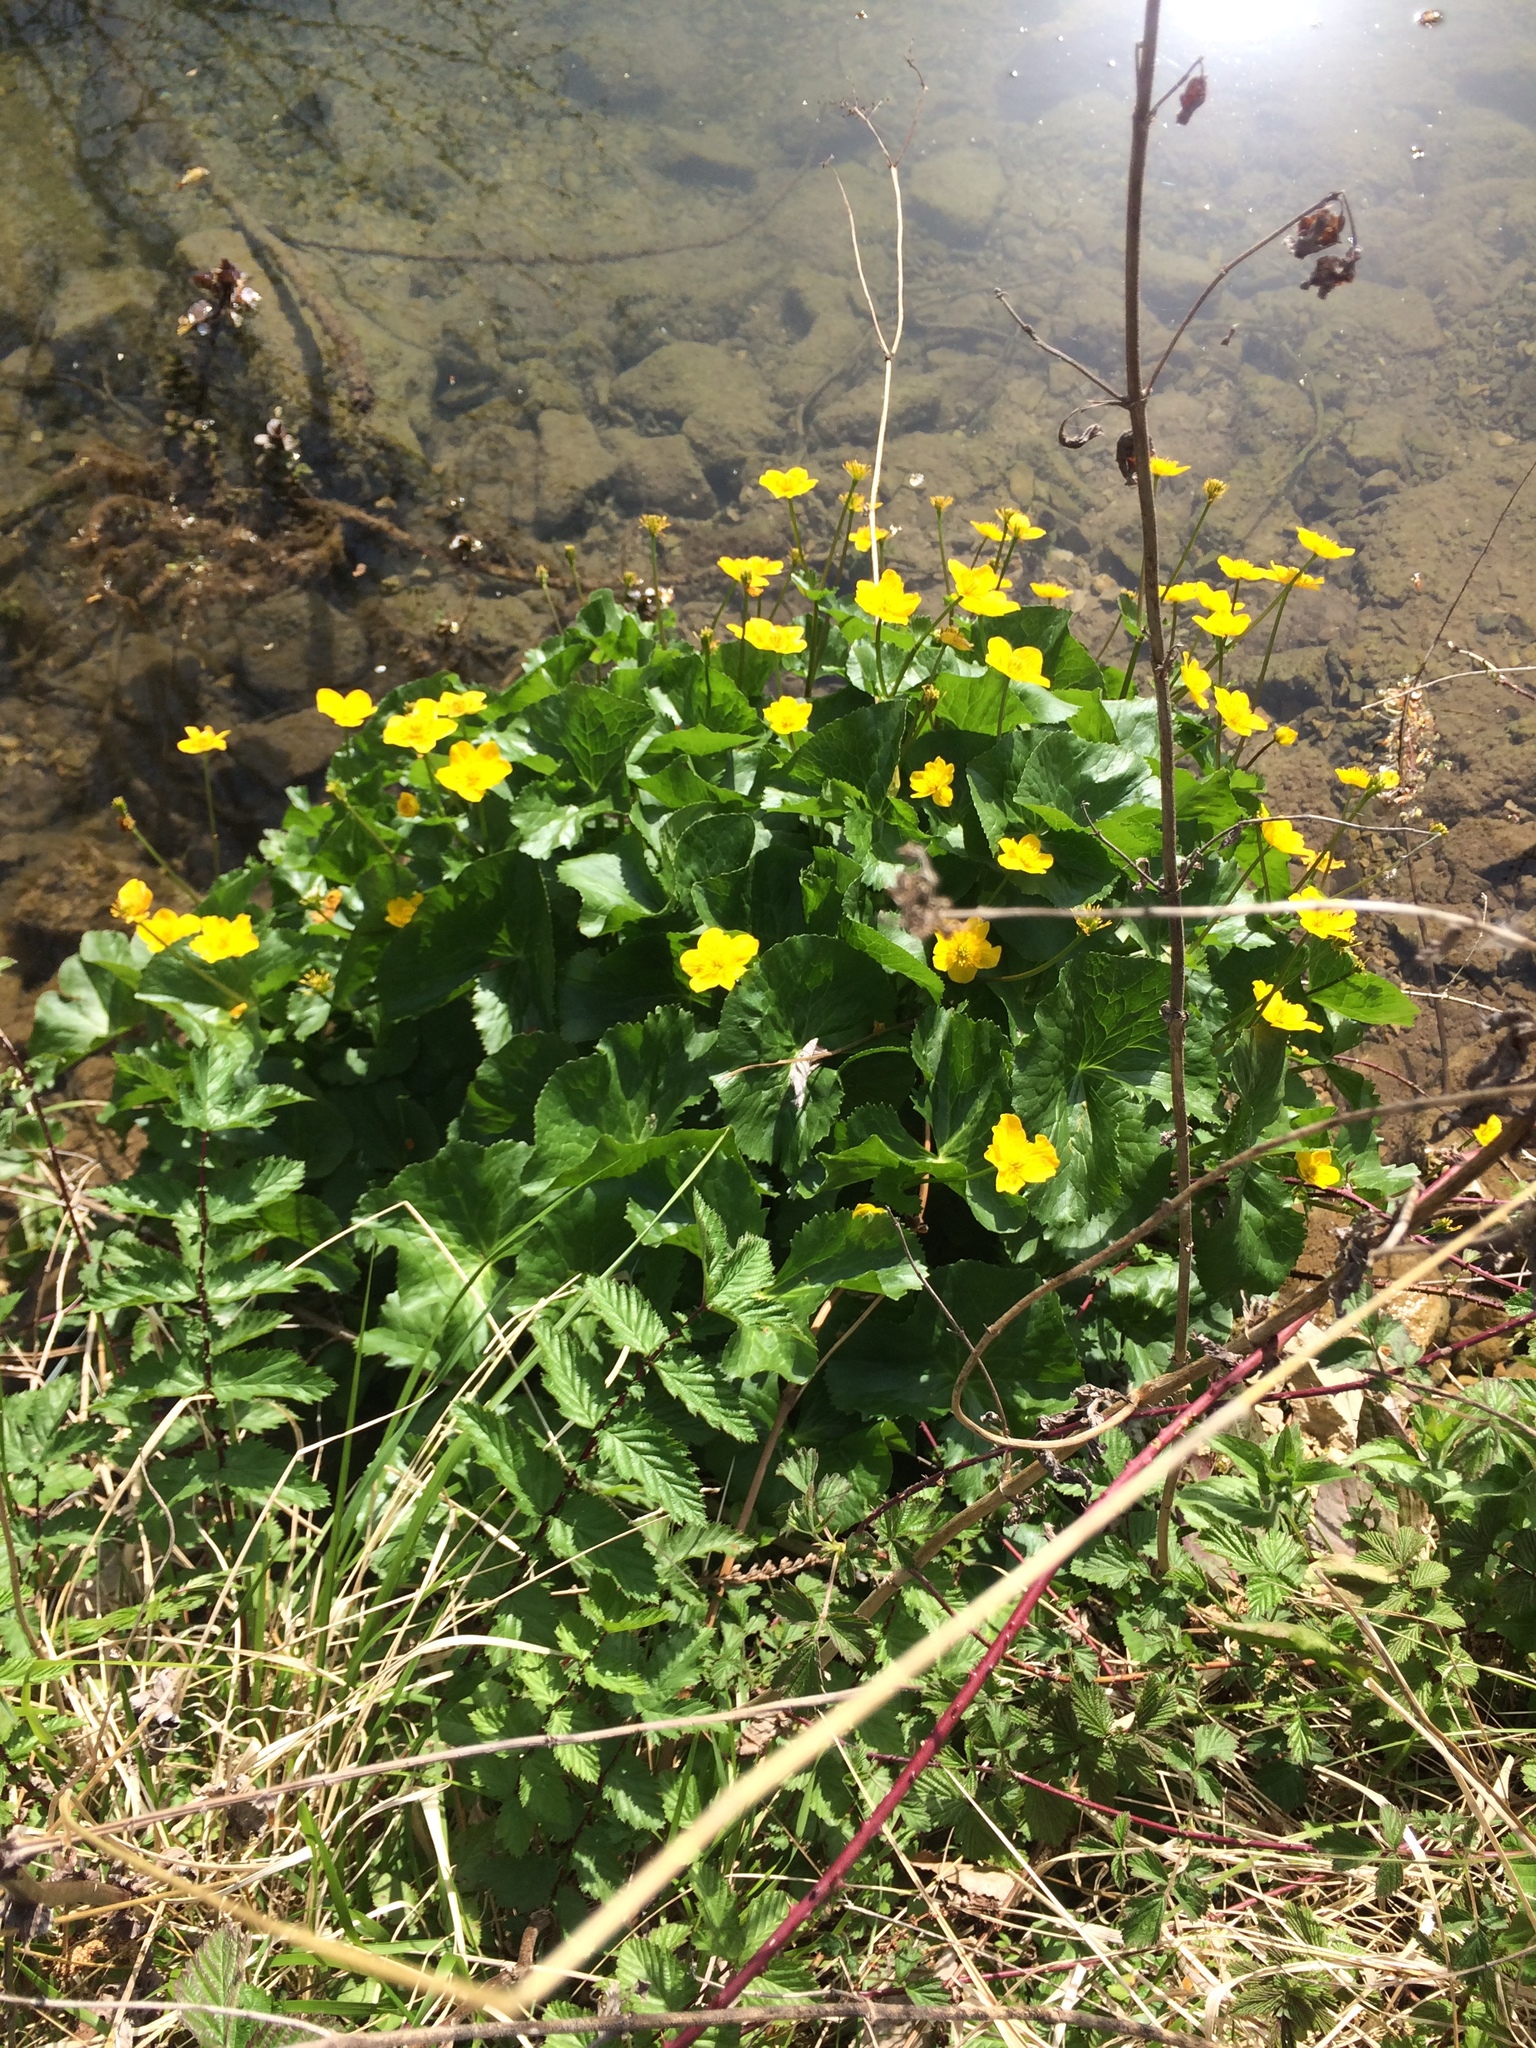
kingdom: Plantae
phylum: Tracheophyta
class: Magnoliopsida
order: Ranunculales
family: Ranunculaceae
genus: Caltha
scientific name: Caltha palustris
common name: Marsh marigold
